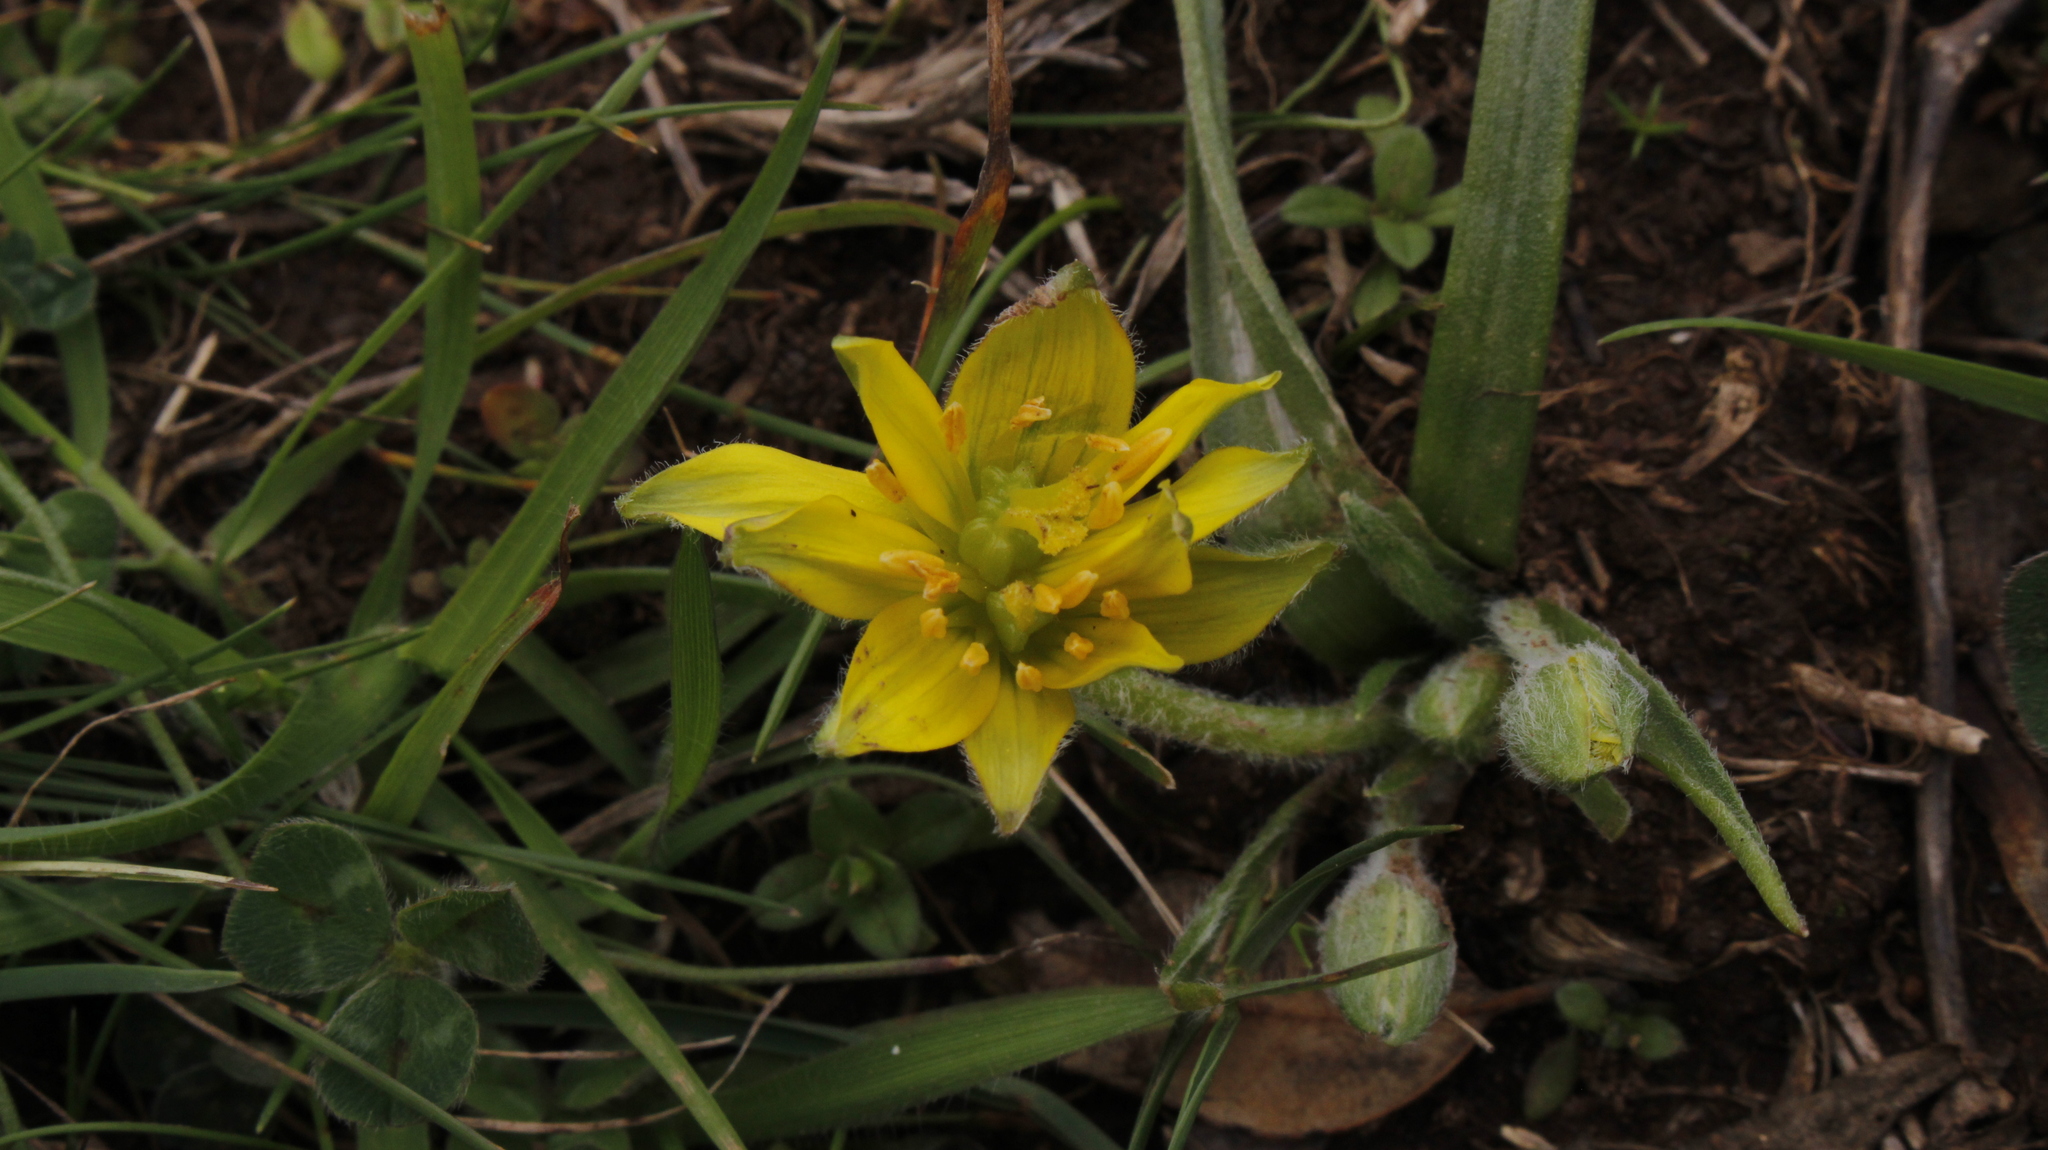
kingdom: Plantae
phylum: Tracheophyta
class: Liliopsida
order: Liliales
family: Liliaceae
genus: Gagea
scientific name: Gagea granatellii
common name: Granatelli’s gagea
